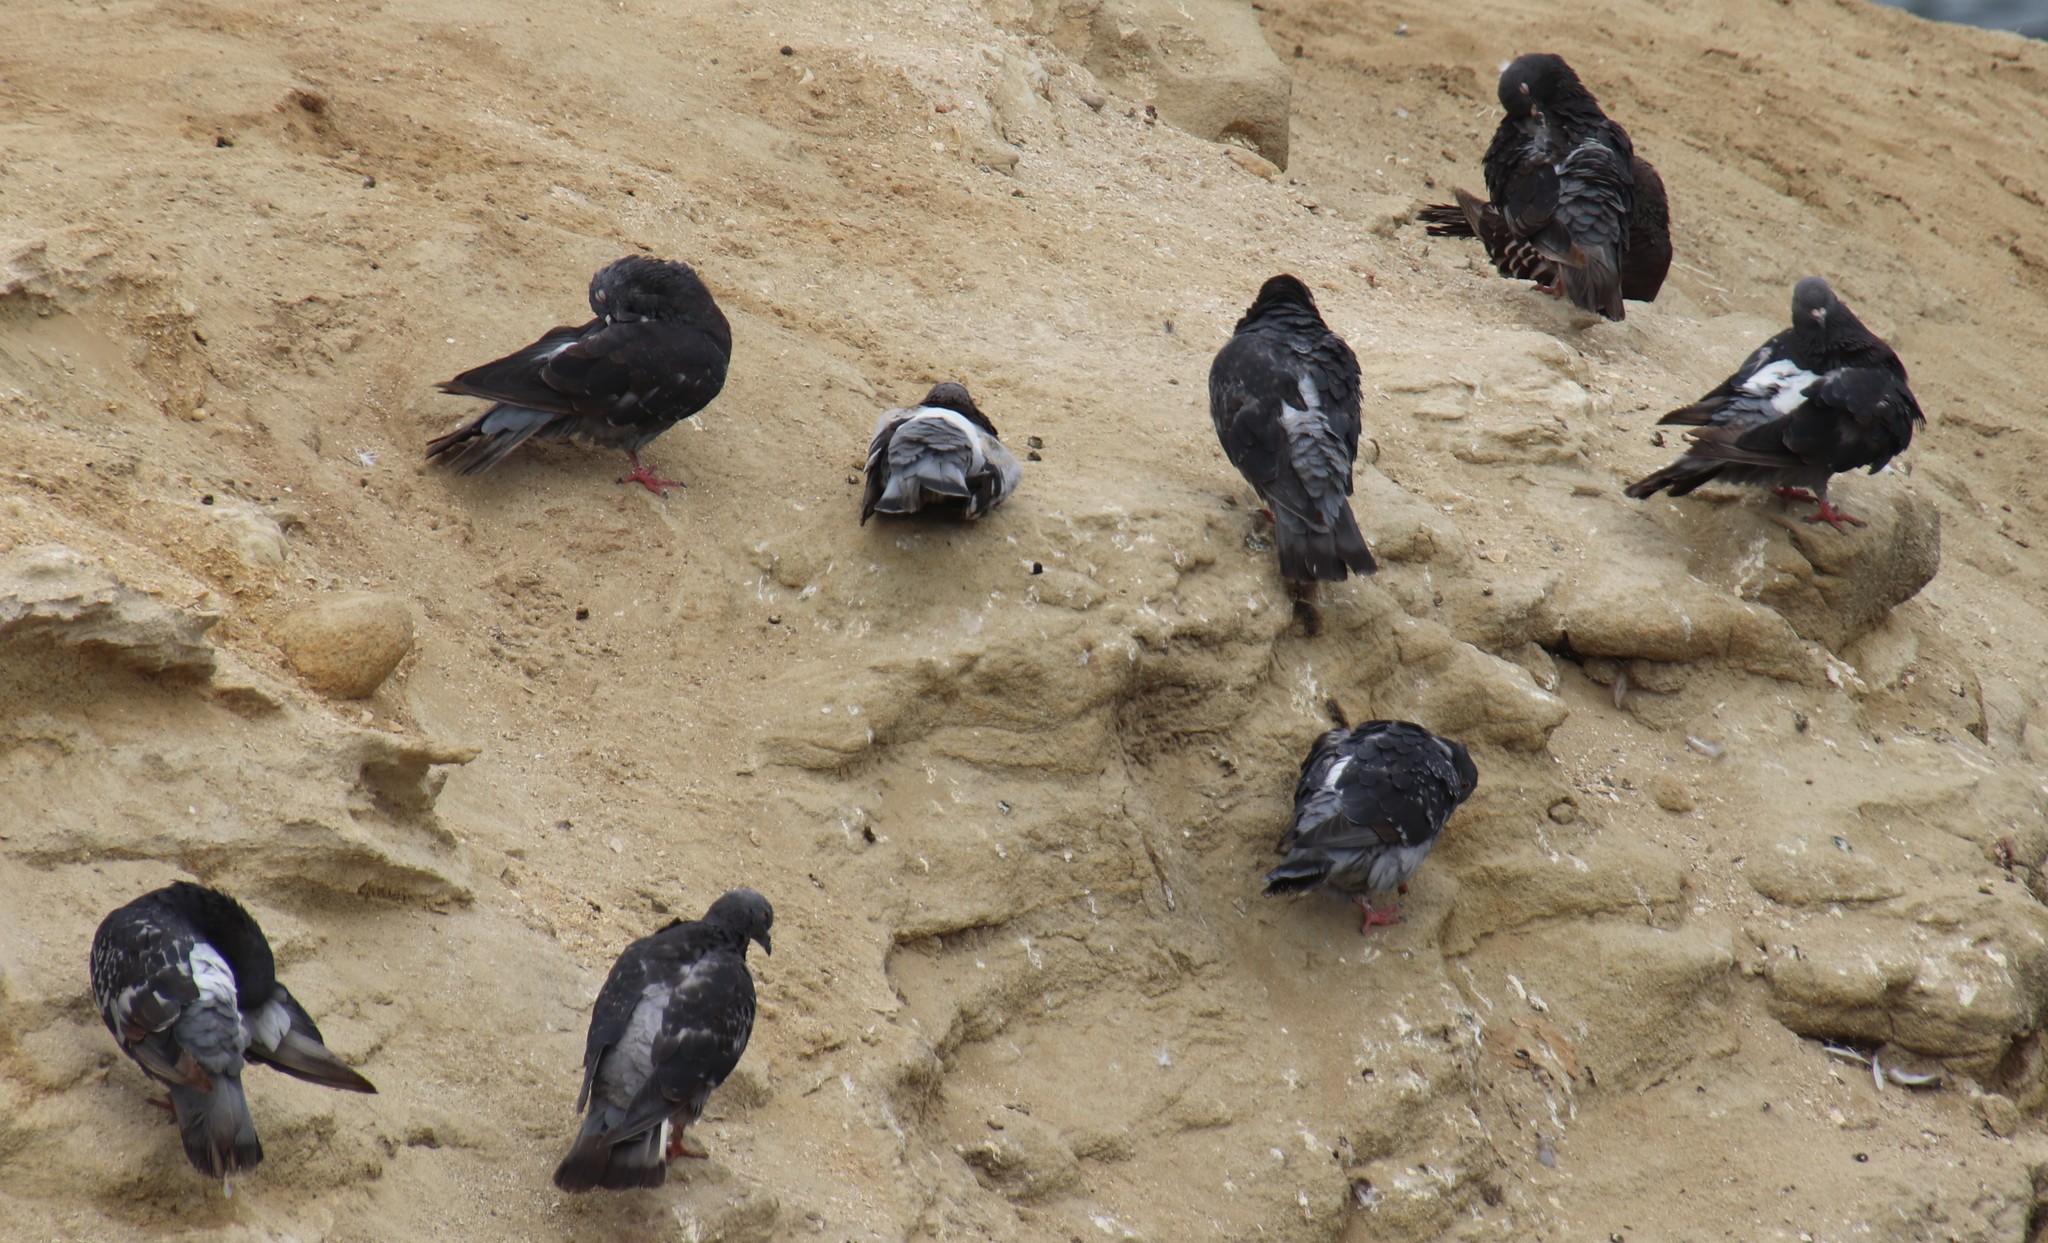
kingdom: Animalia
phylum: Chordata
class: Aves
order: Columbiformes
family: Columbidae
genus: Columba
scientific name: Columba livia
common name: Rock pigeon
